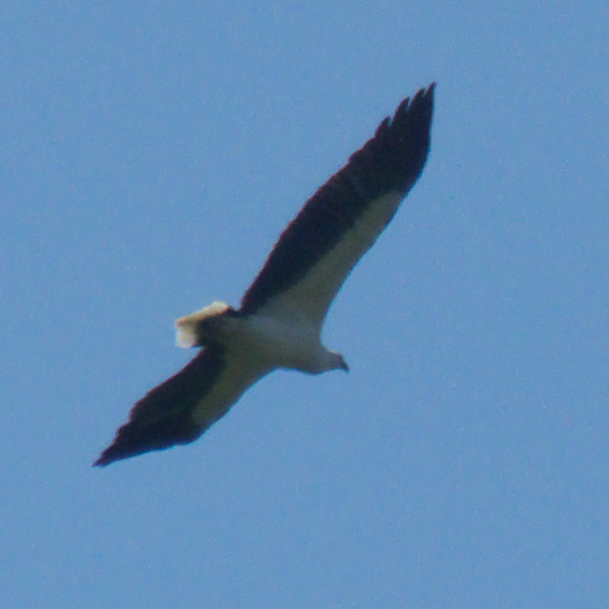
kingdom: Animalia
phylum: Chordata
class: Aves
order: Accipitriformes
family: Accipitridae
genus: Haliaeetus
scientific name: Haliaeetus leucogaster
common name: White-bellied sea eagle
